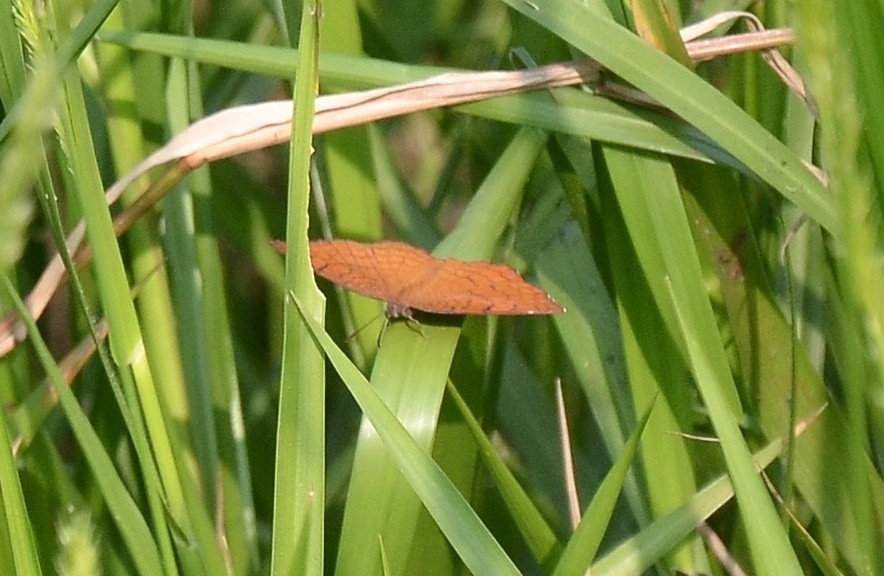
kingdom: Animalia
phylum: Arthropoda
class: Insecta
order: Lepidoptera
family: Nymphalidae
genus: Ariadne
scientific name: Ariadne ariadne
